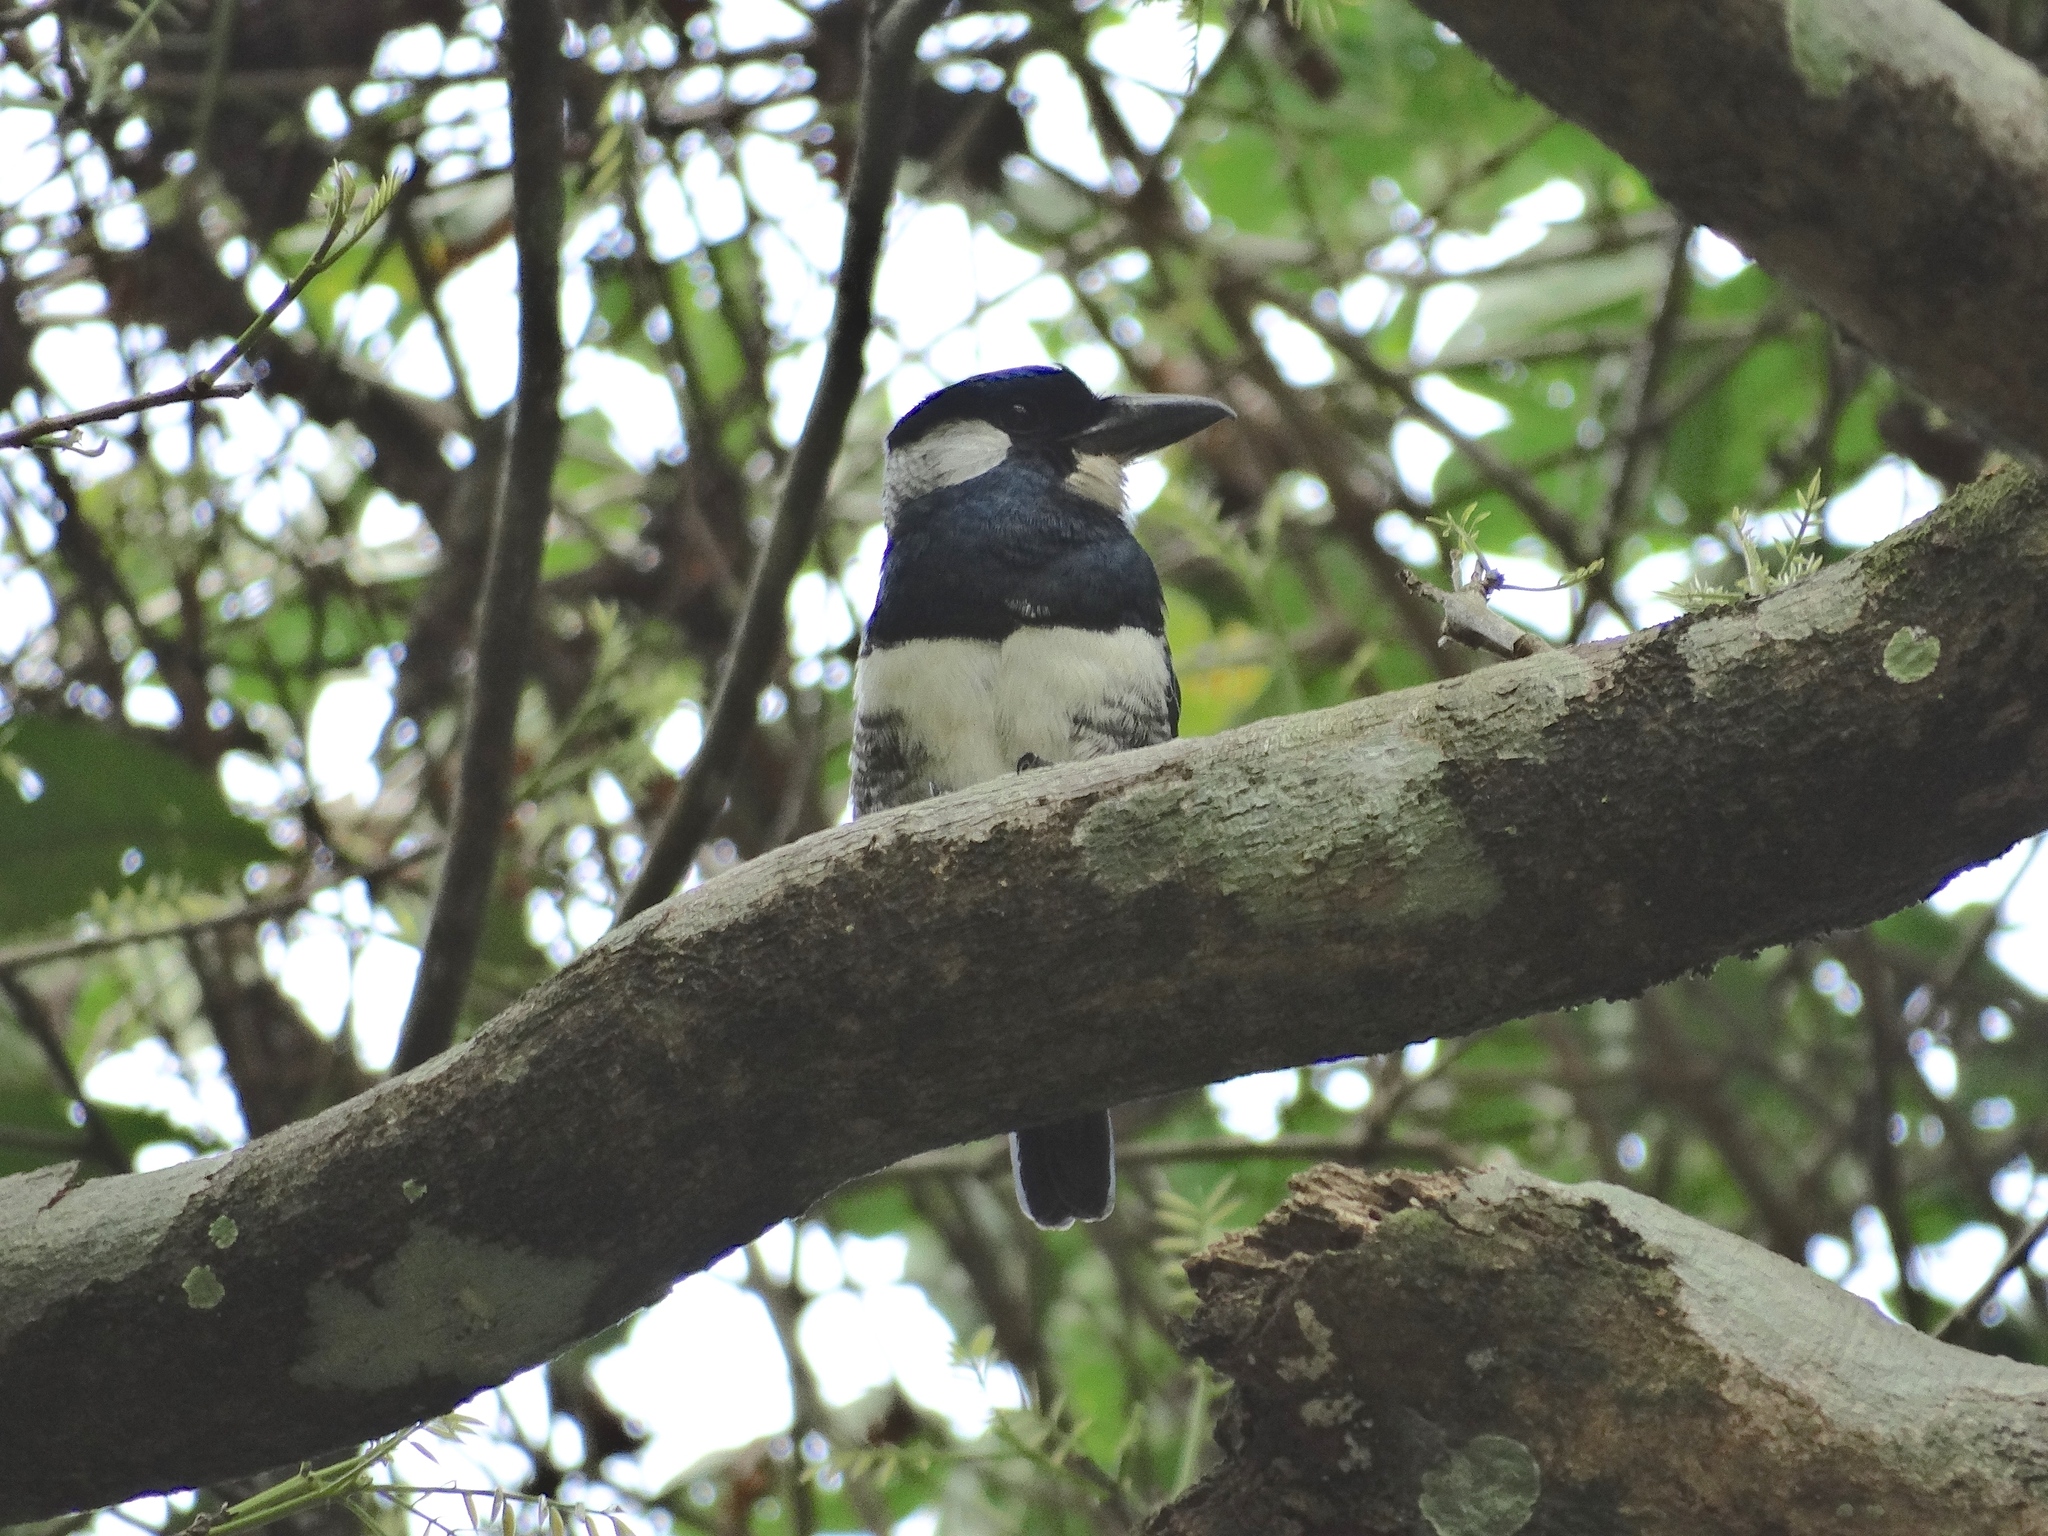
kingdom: Animalia
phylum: Chordata
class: Aves
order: Piciformes
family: Bucconidae
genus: Notharchus
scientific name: Notharchus pectoralis
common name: Black-breasted puffbird
